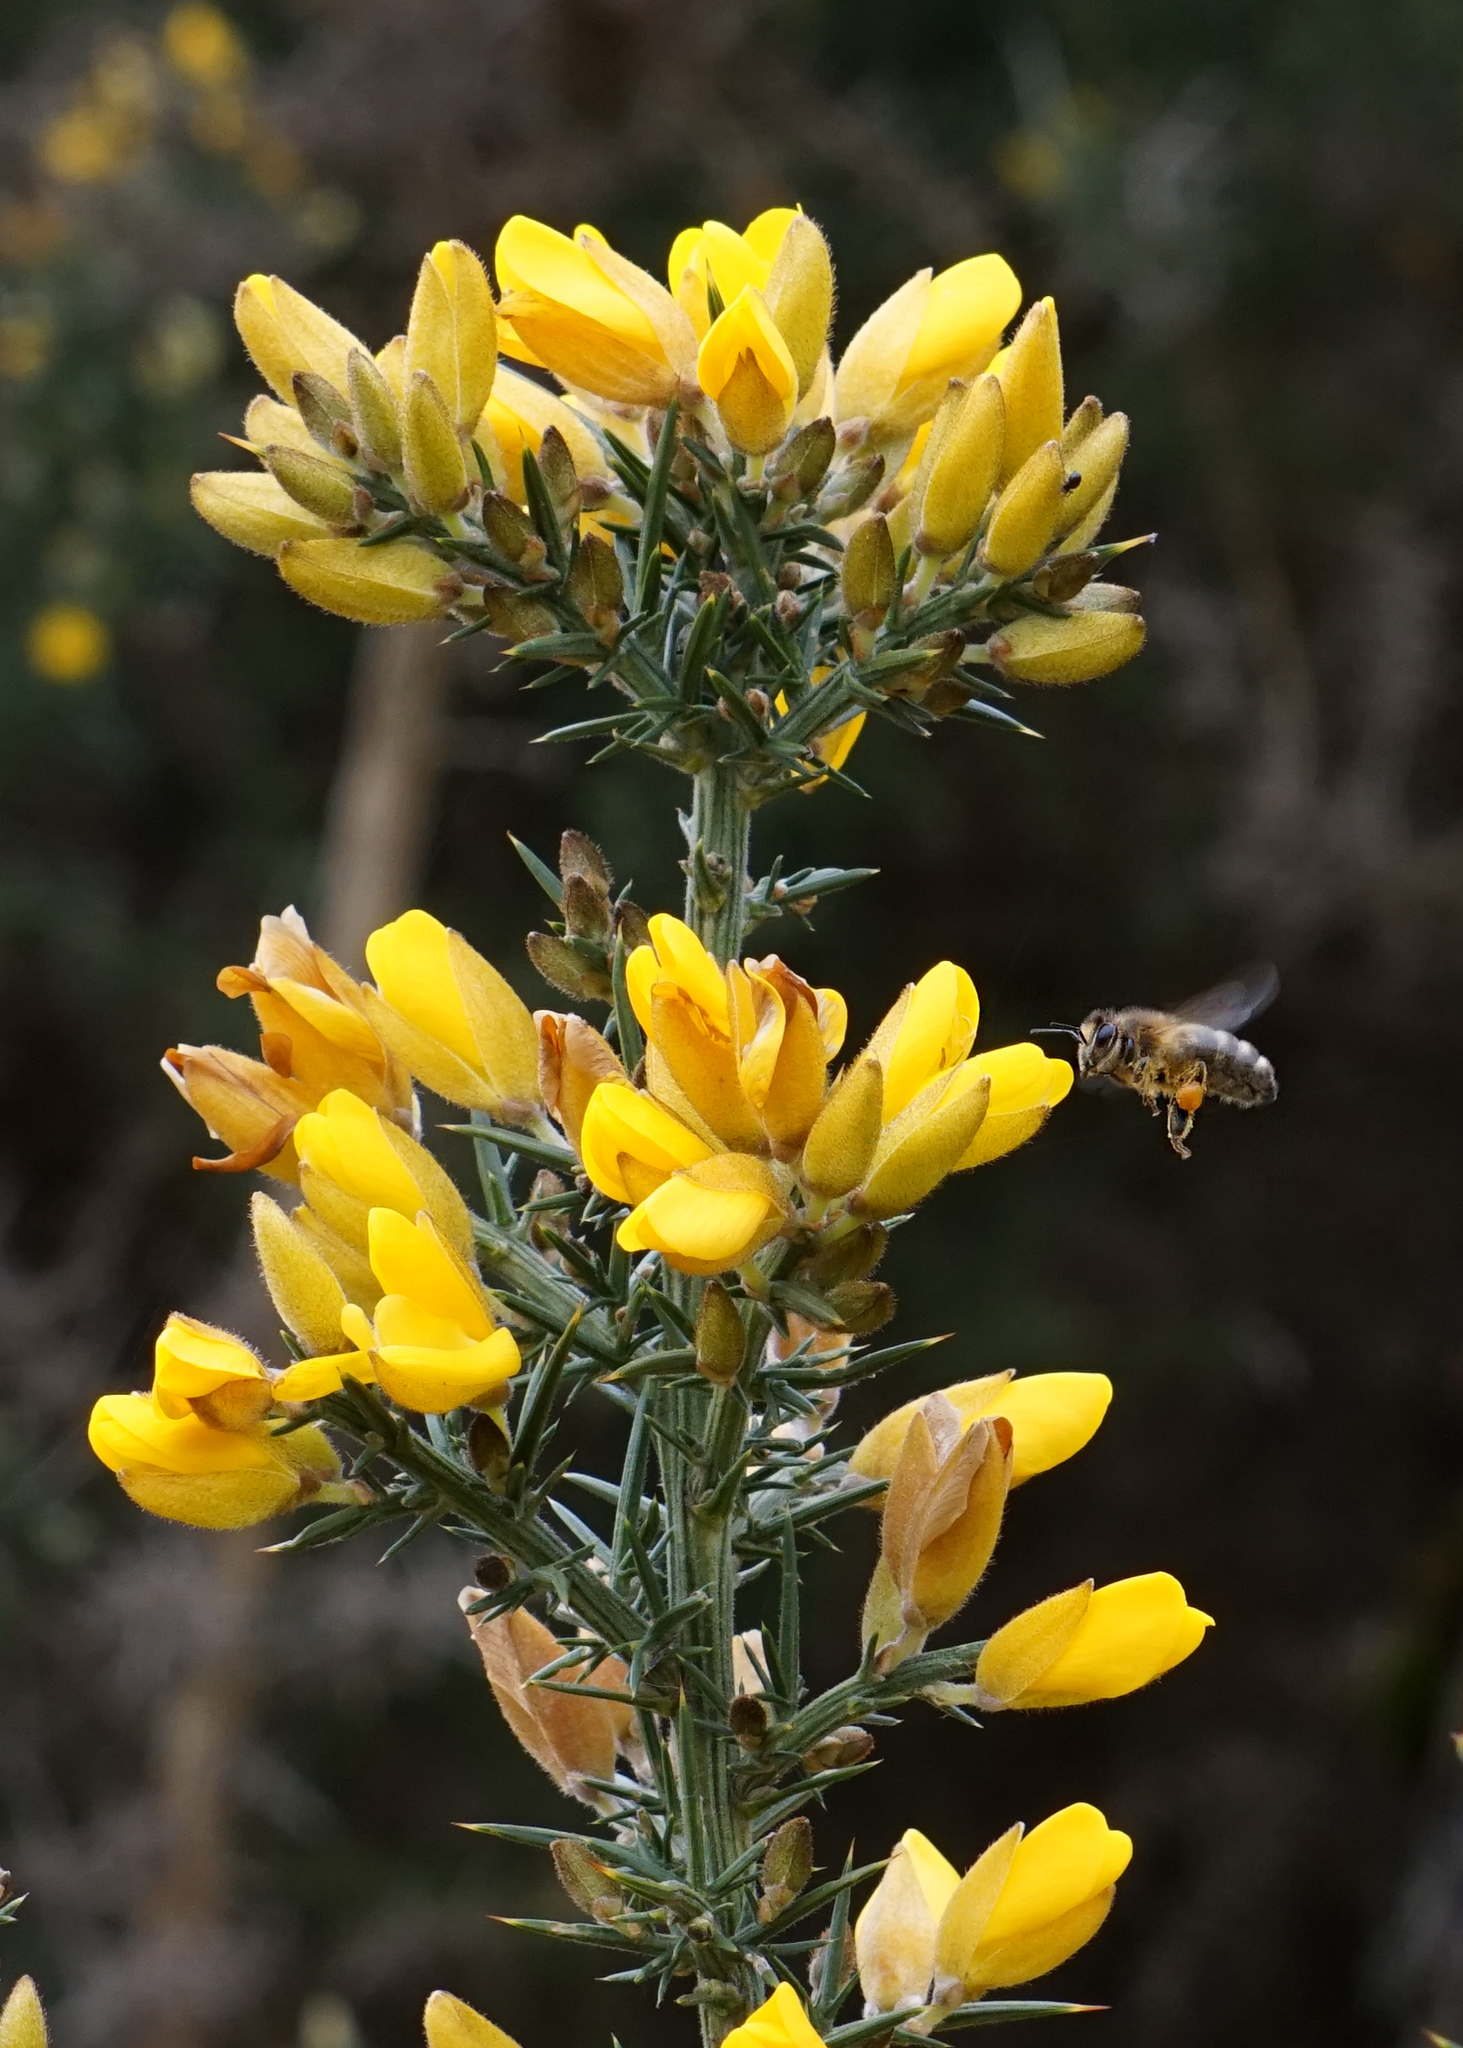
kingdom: Animalia
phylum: Arthropoda
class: Insecta
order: Hymenoptera
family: Apidae
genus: Apis
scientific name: Apis mellifera
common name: Honey bee
